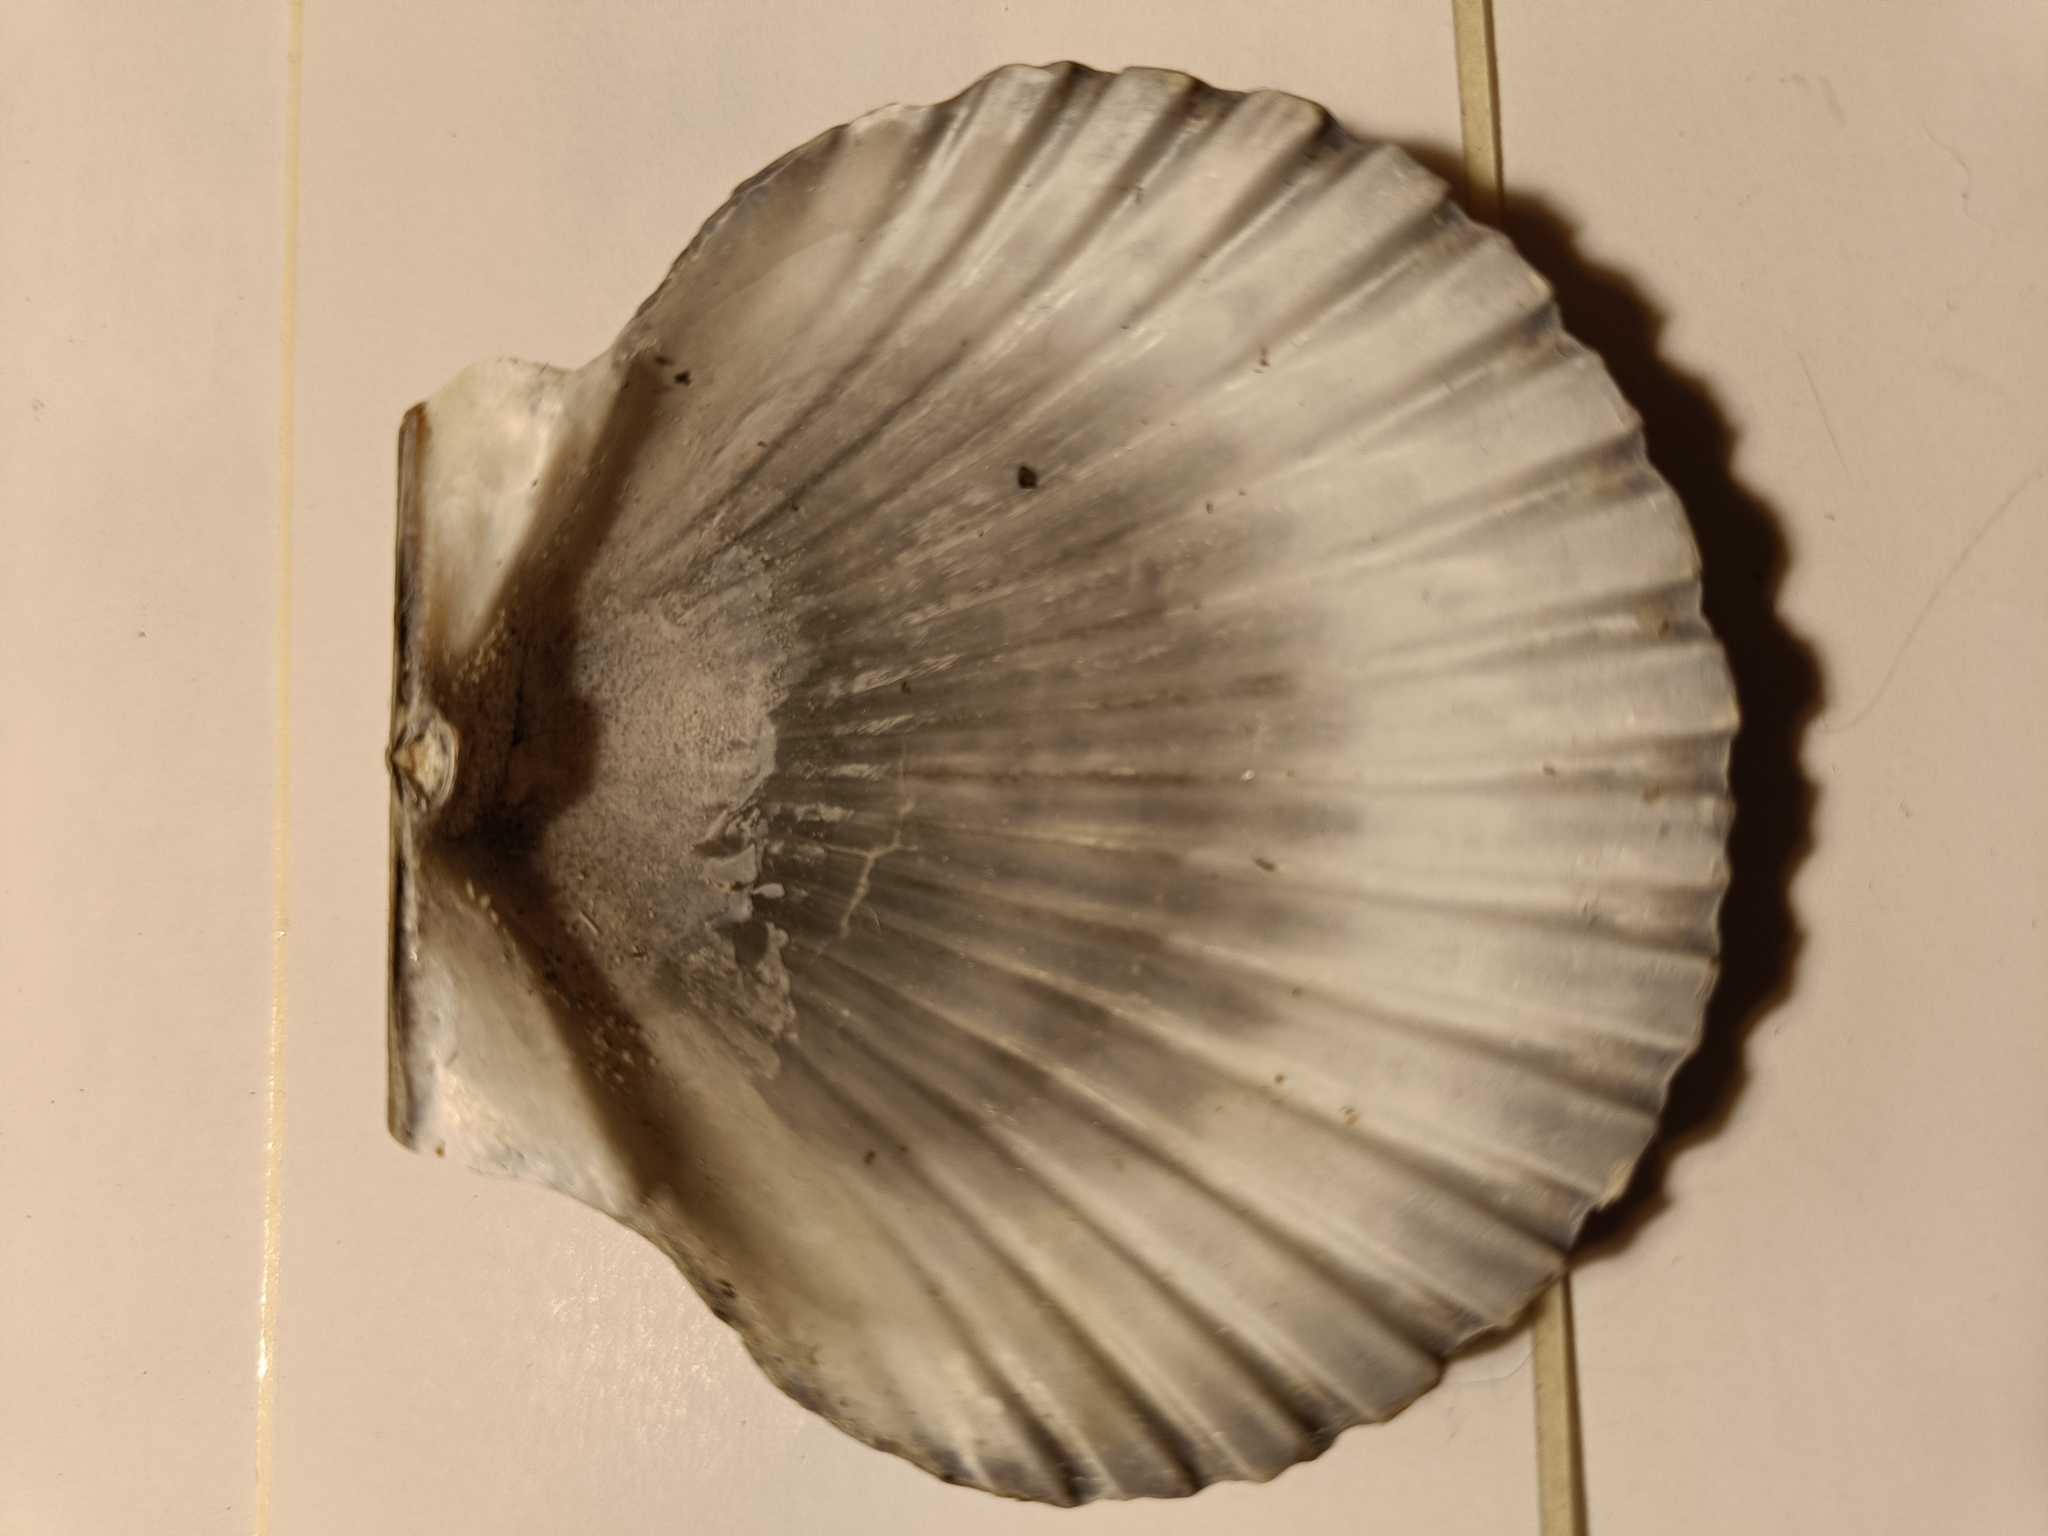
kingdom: Animalia
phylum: Mollusca
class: Bivalvia
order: Pectinida
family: Pectinidae
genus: Argopecten
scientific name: Argopecten irradians
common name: Atlantic bay scallop
